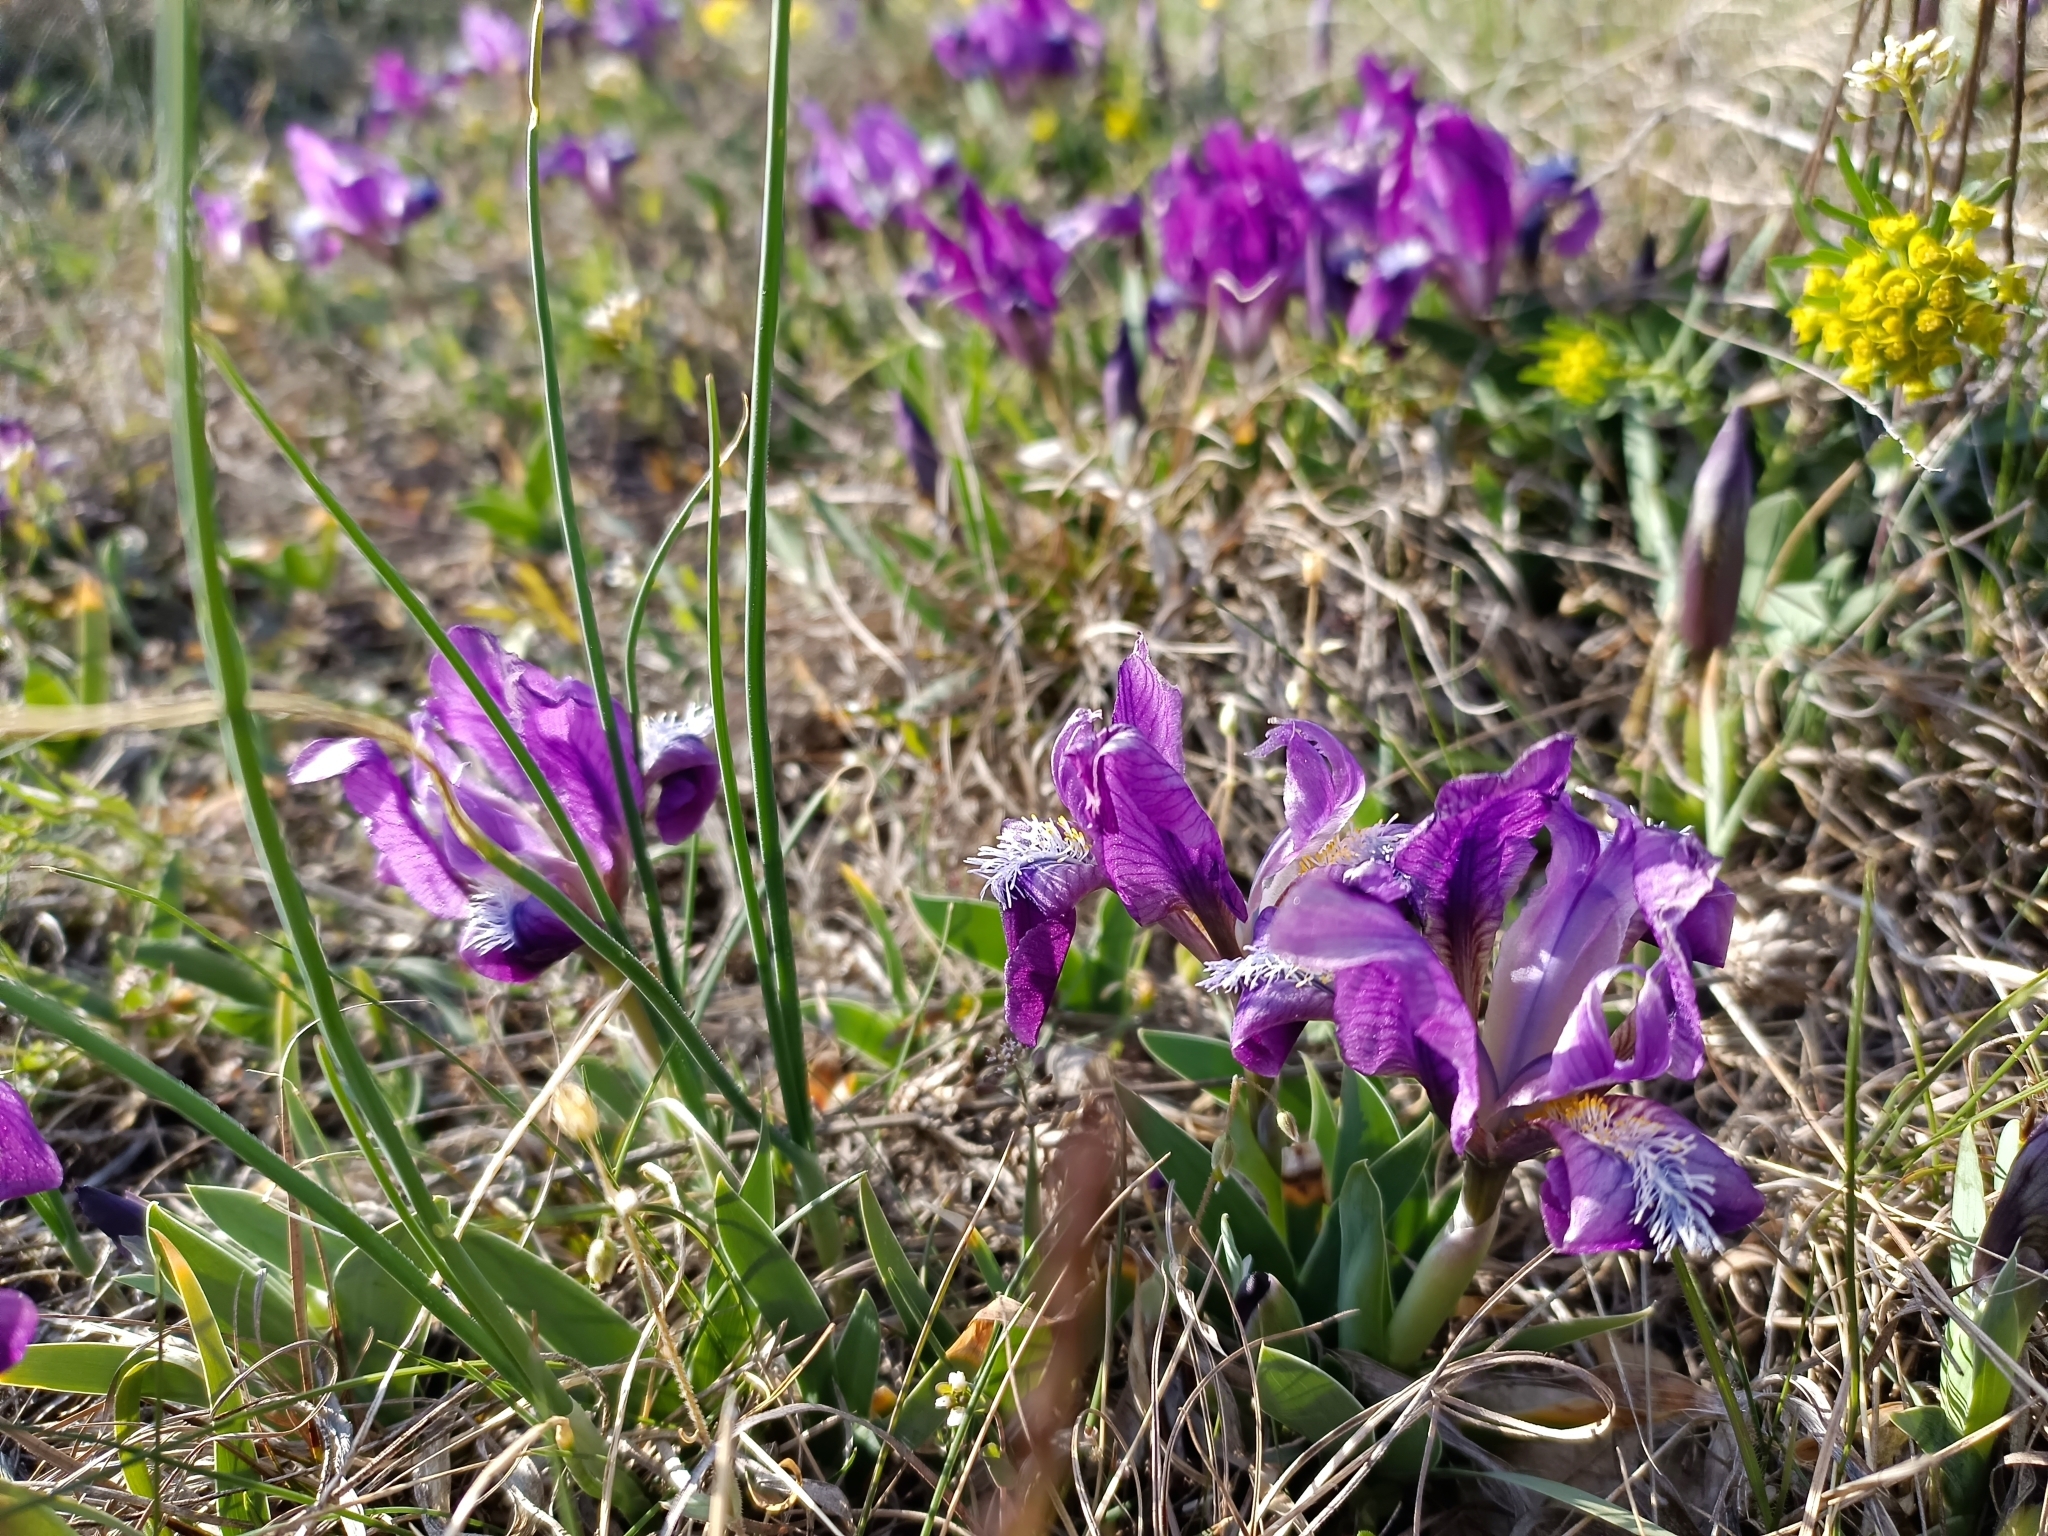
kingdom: Plantae
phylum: Tracheophyta
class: Liliopsida
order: Asparagales
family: Iridaceae
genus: Iris
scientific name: Iris pumila
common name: Dwarf iris
